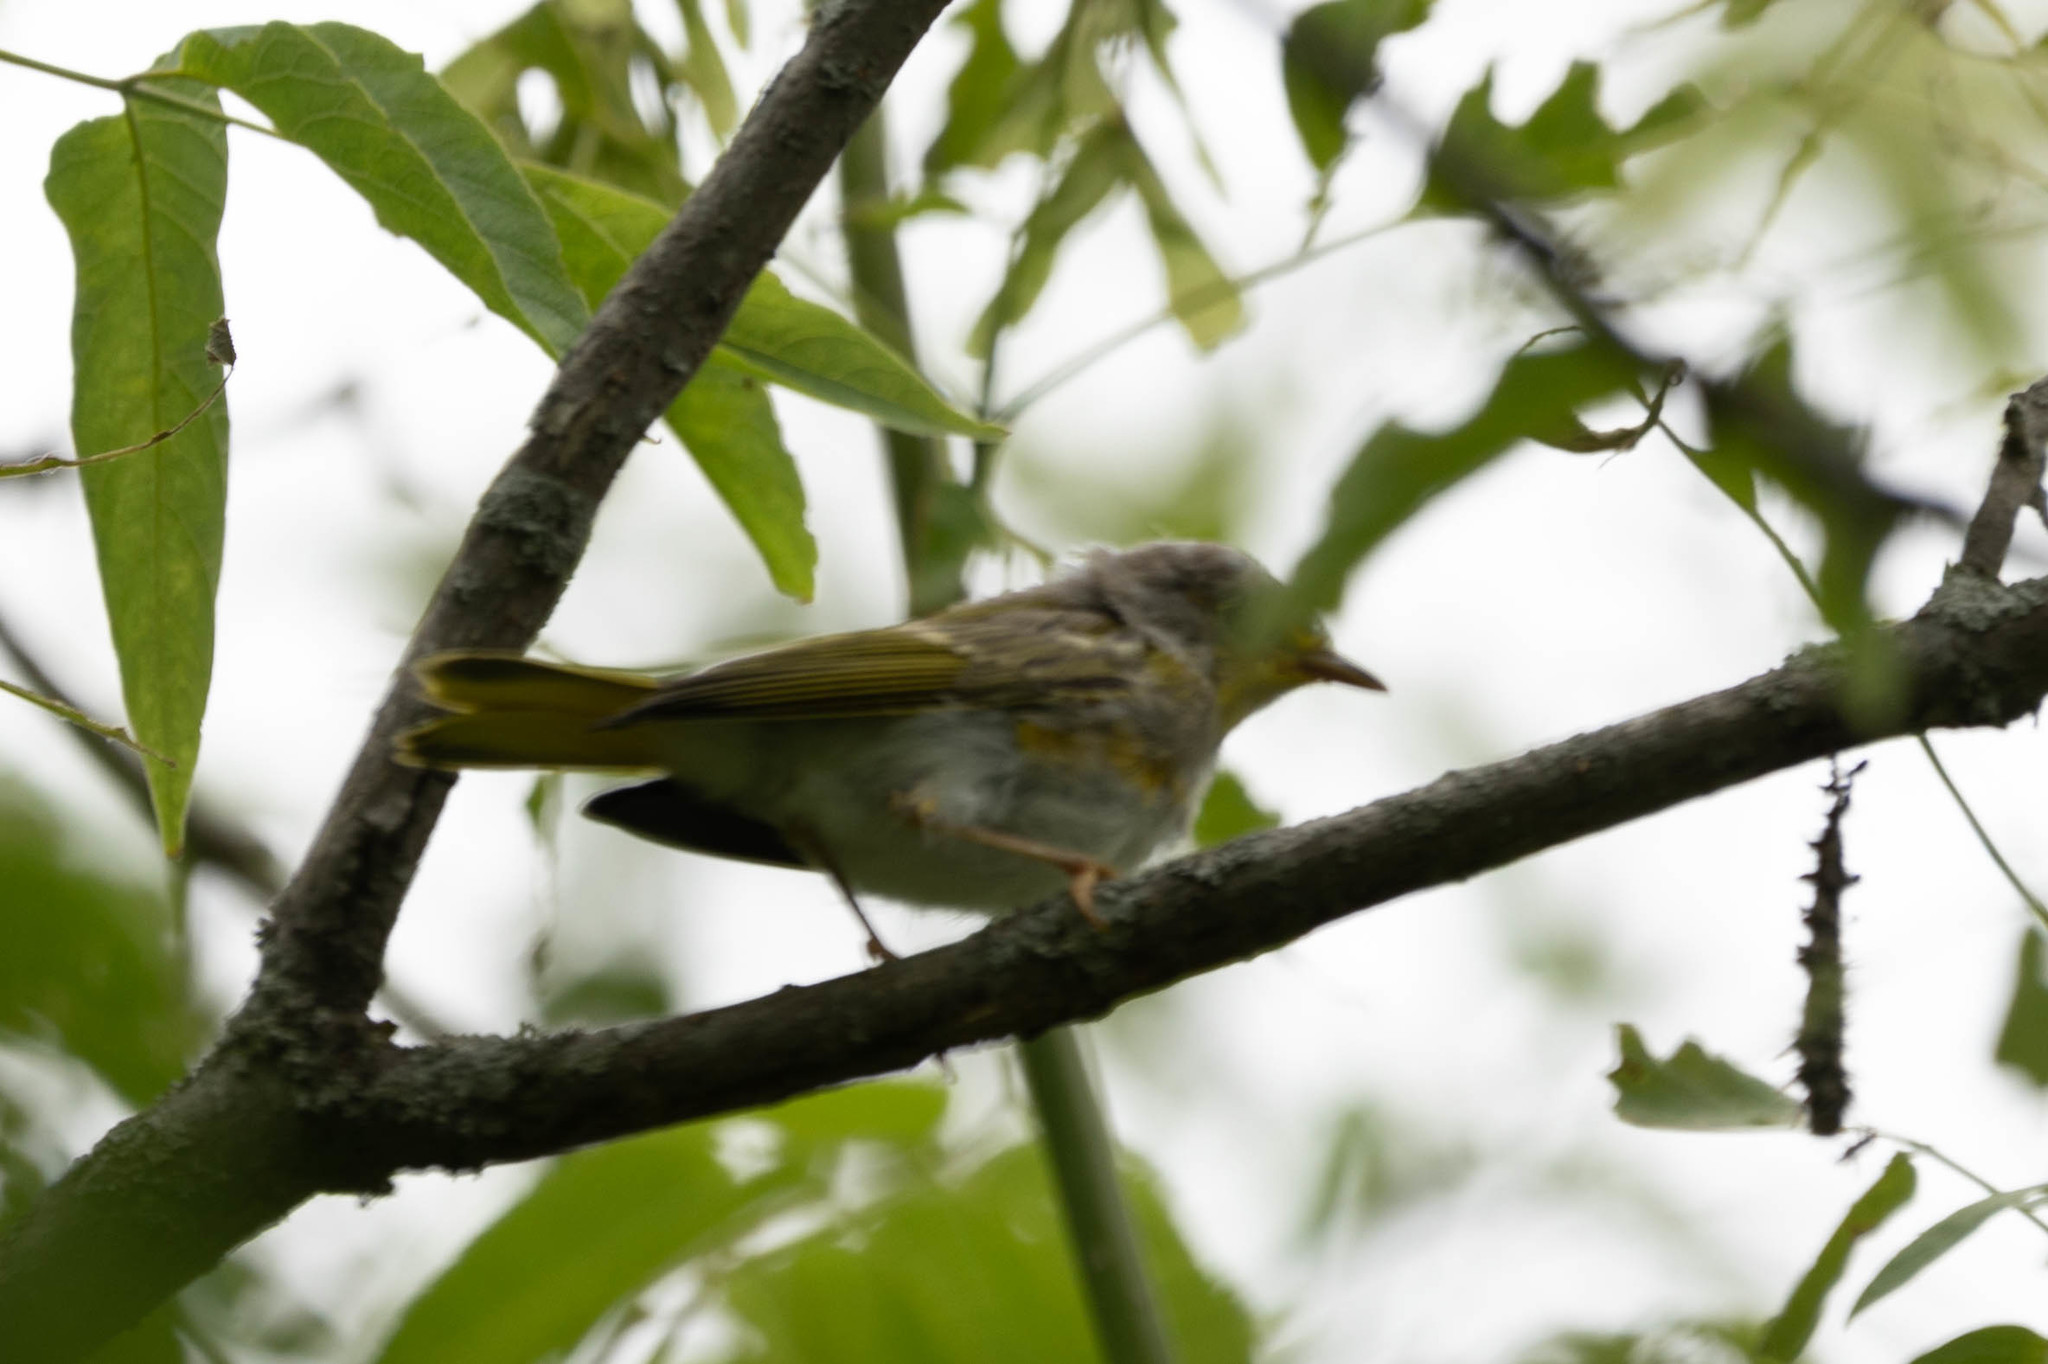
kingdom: Animalia
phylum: Chordata
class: Aves
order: Passeriformes
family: Parulidae
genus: Setophaga
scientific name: Setophaga petechia
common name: Yellow warbler
